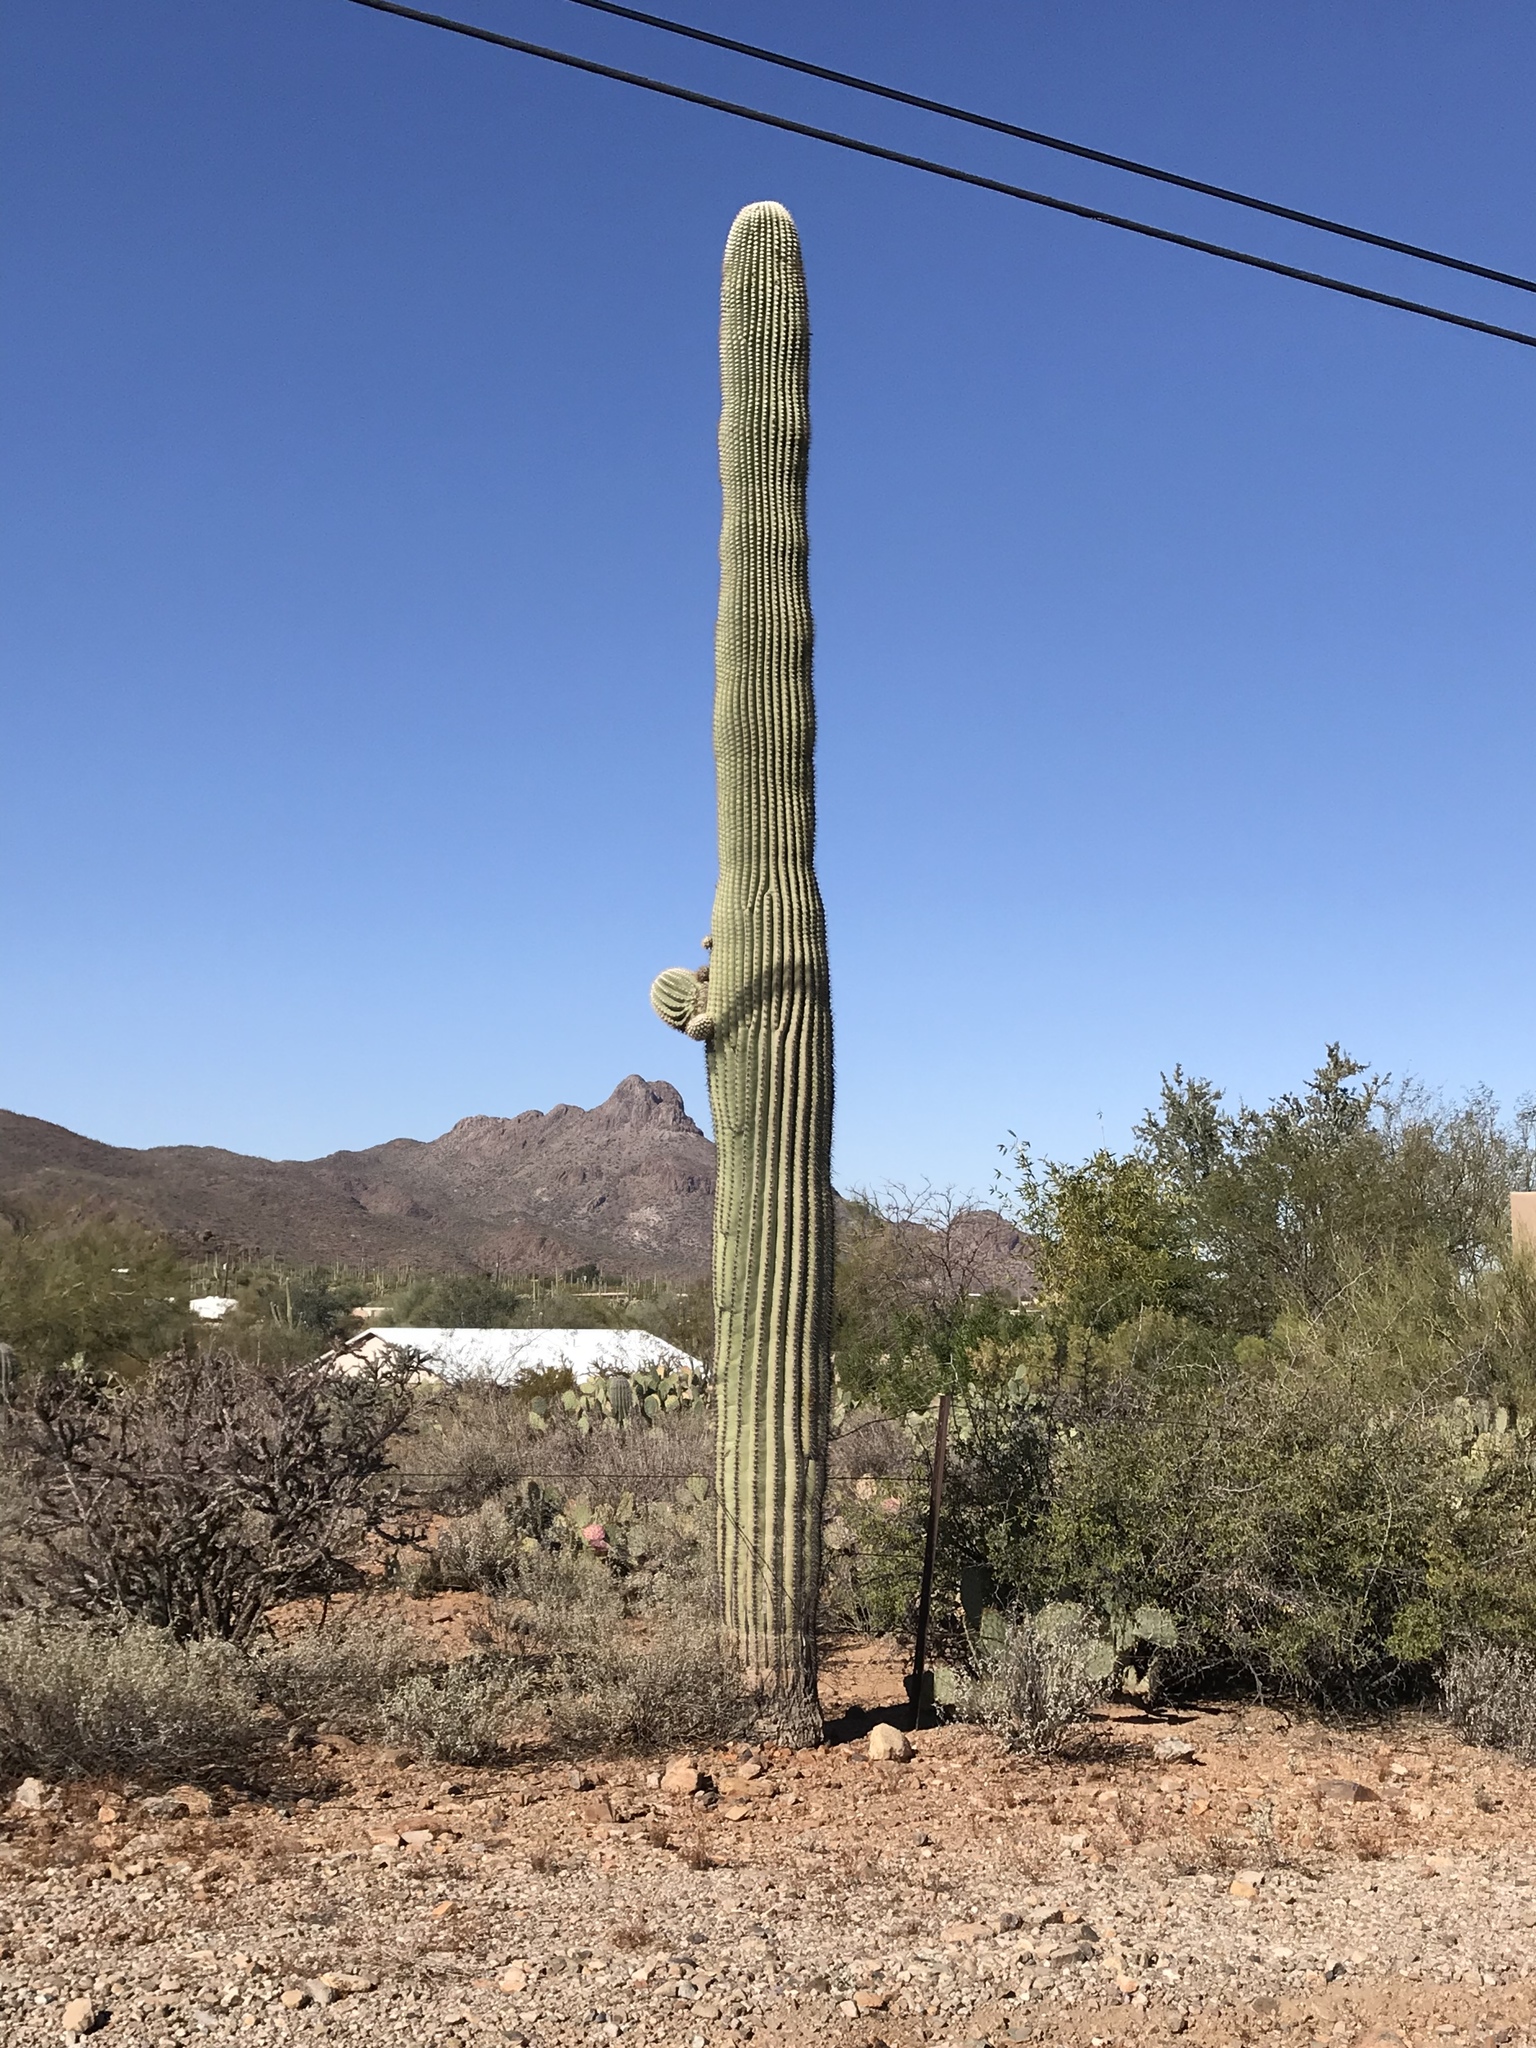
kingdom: Plantae
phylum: Tracheophyta
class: Magnoliopsida
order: Caryophyllales
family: Cactaceae
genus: Carnegiea
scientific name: Carnegiea gigantea
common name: Saguaro
